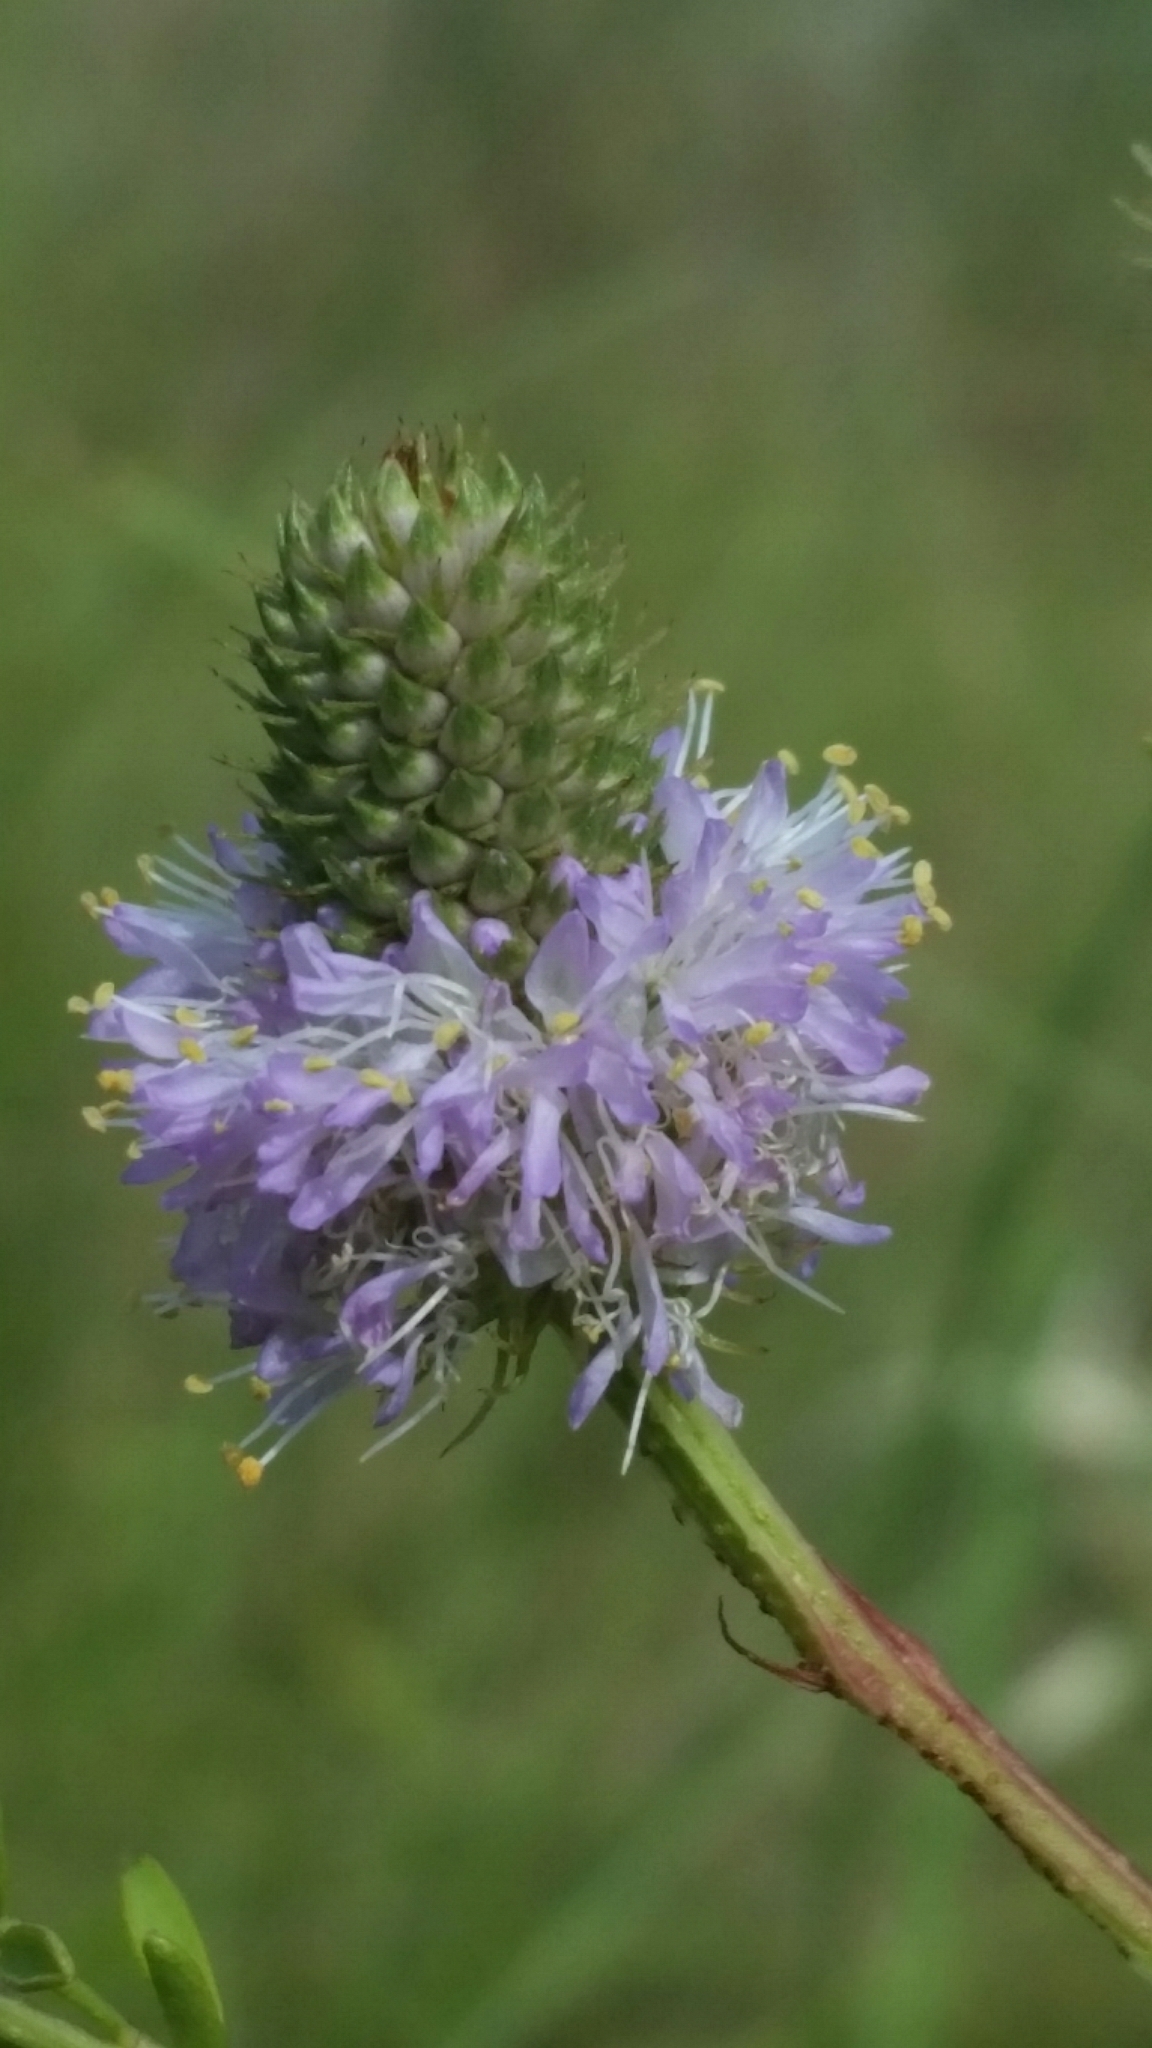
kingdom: Plantae
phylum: Tracheophyta
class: Magnoliopsida
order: Fabales
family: Fabaceae
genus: Dalea
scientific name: Dalea carnea
